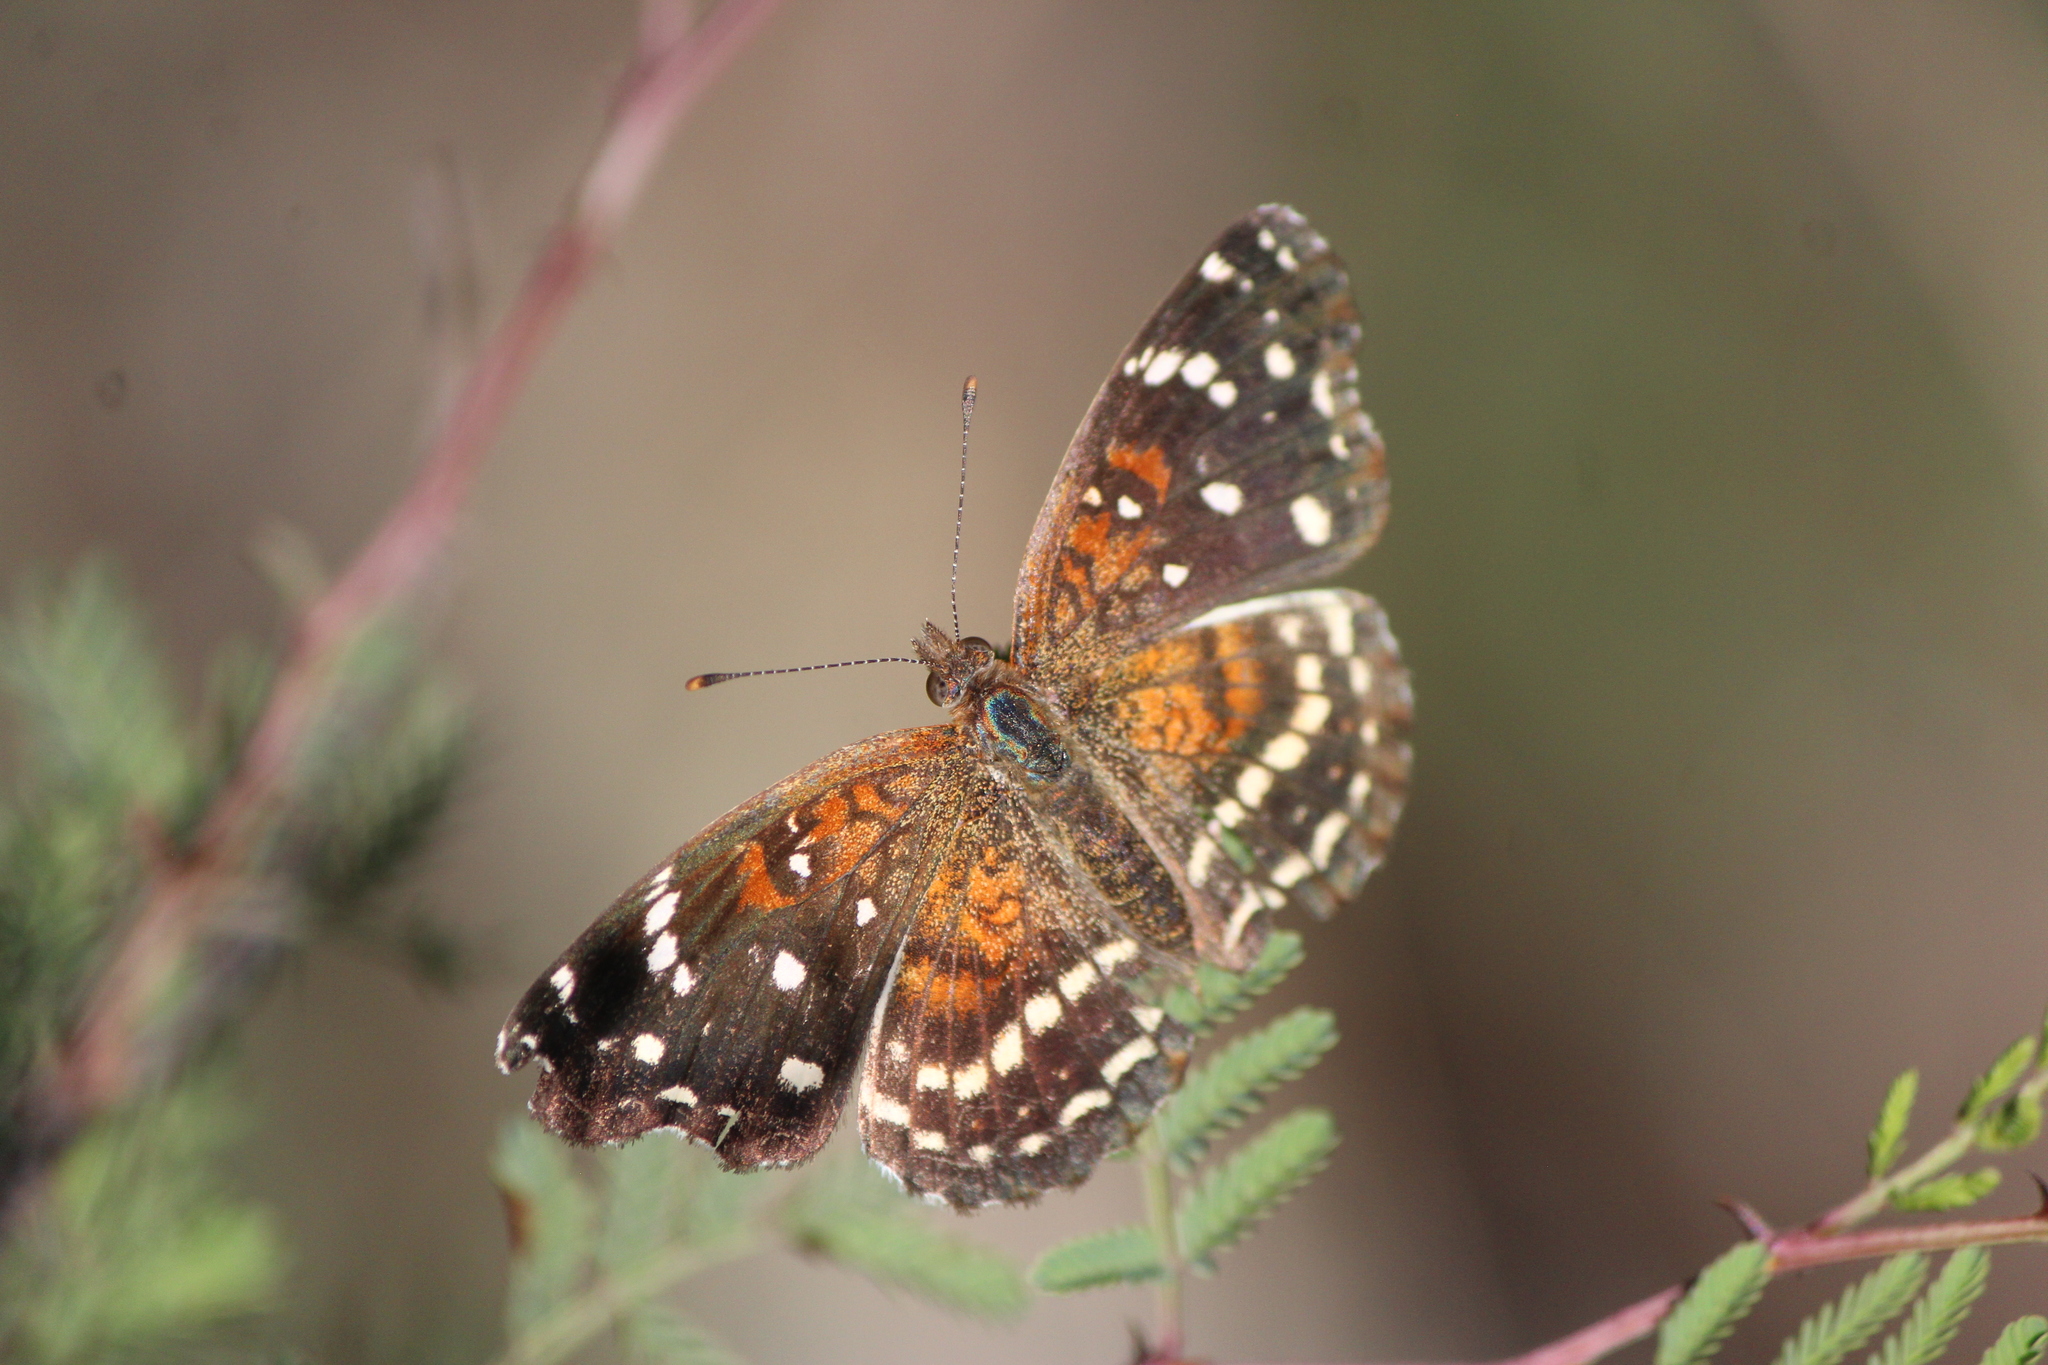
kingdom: Animalia
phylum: Arthropoda
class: Insecta
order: Lepidoptera
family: Nymphalidae
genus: Anthanassa
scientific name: Anthanassa texana
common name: Texan crescent
